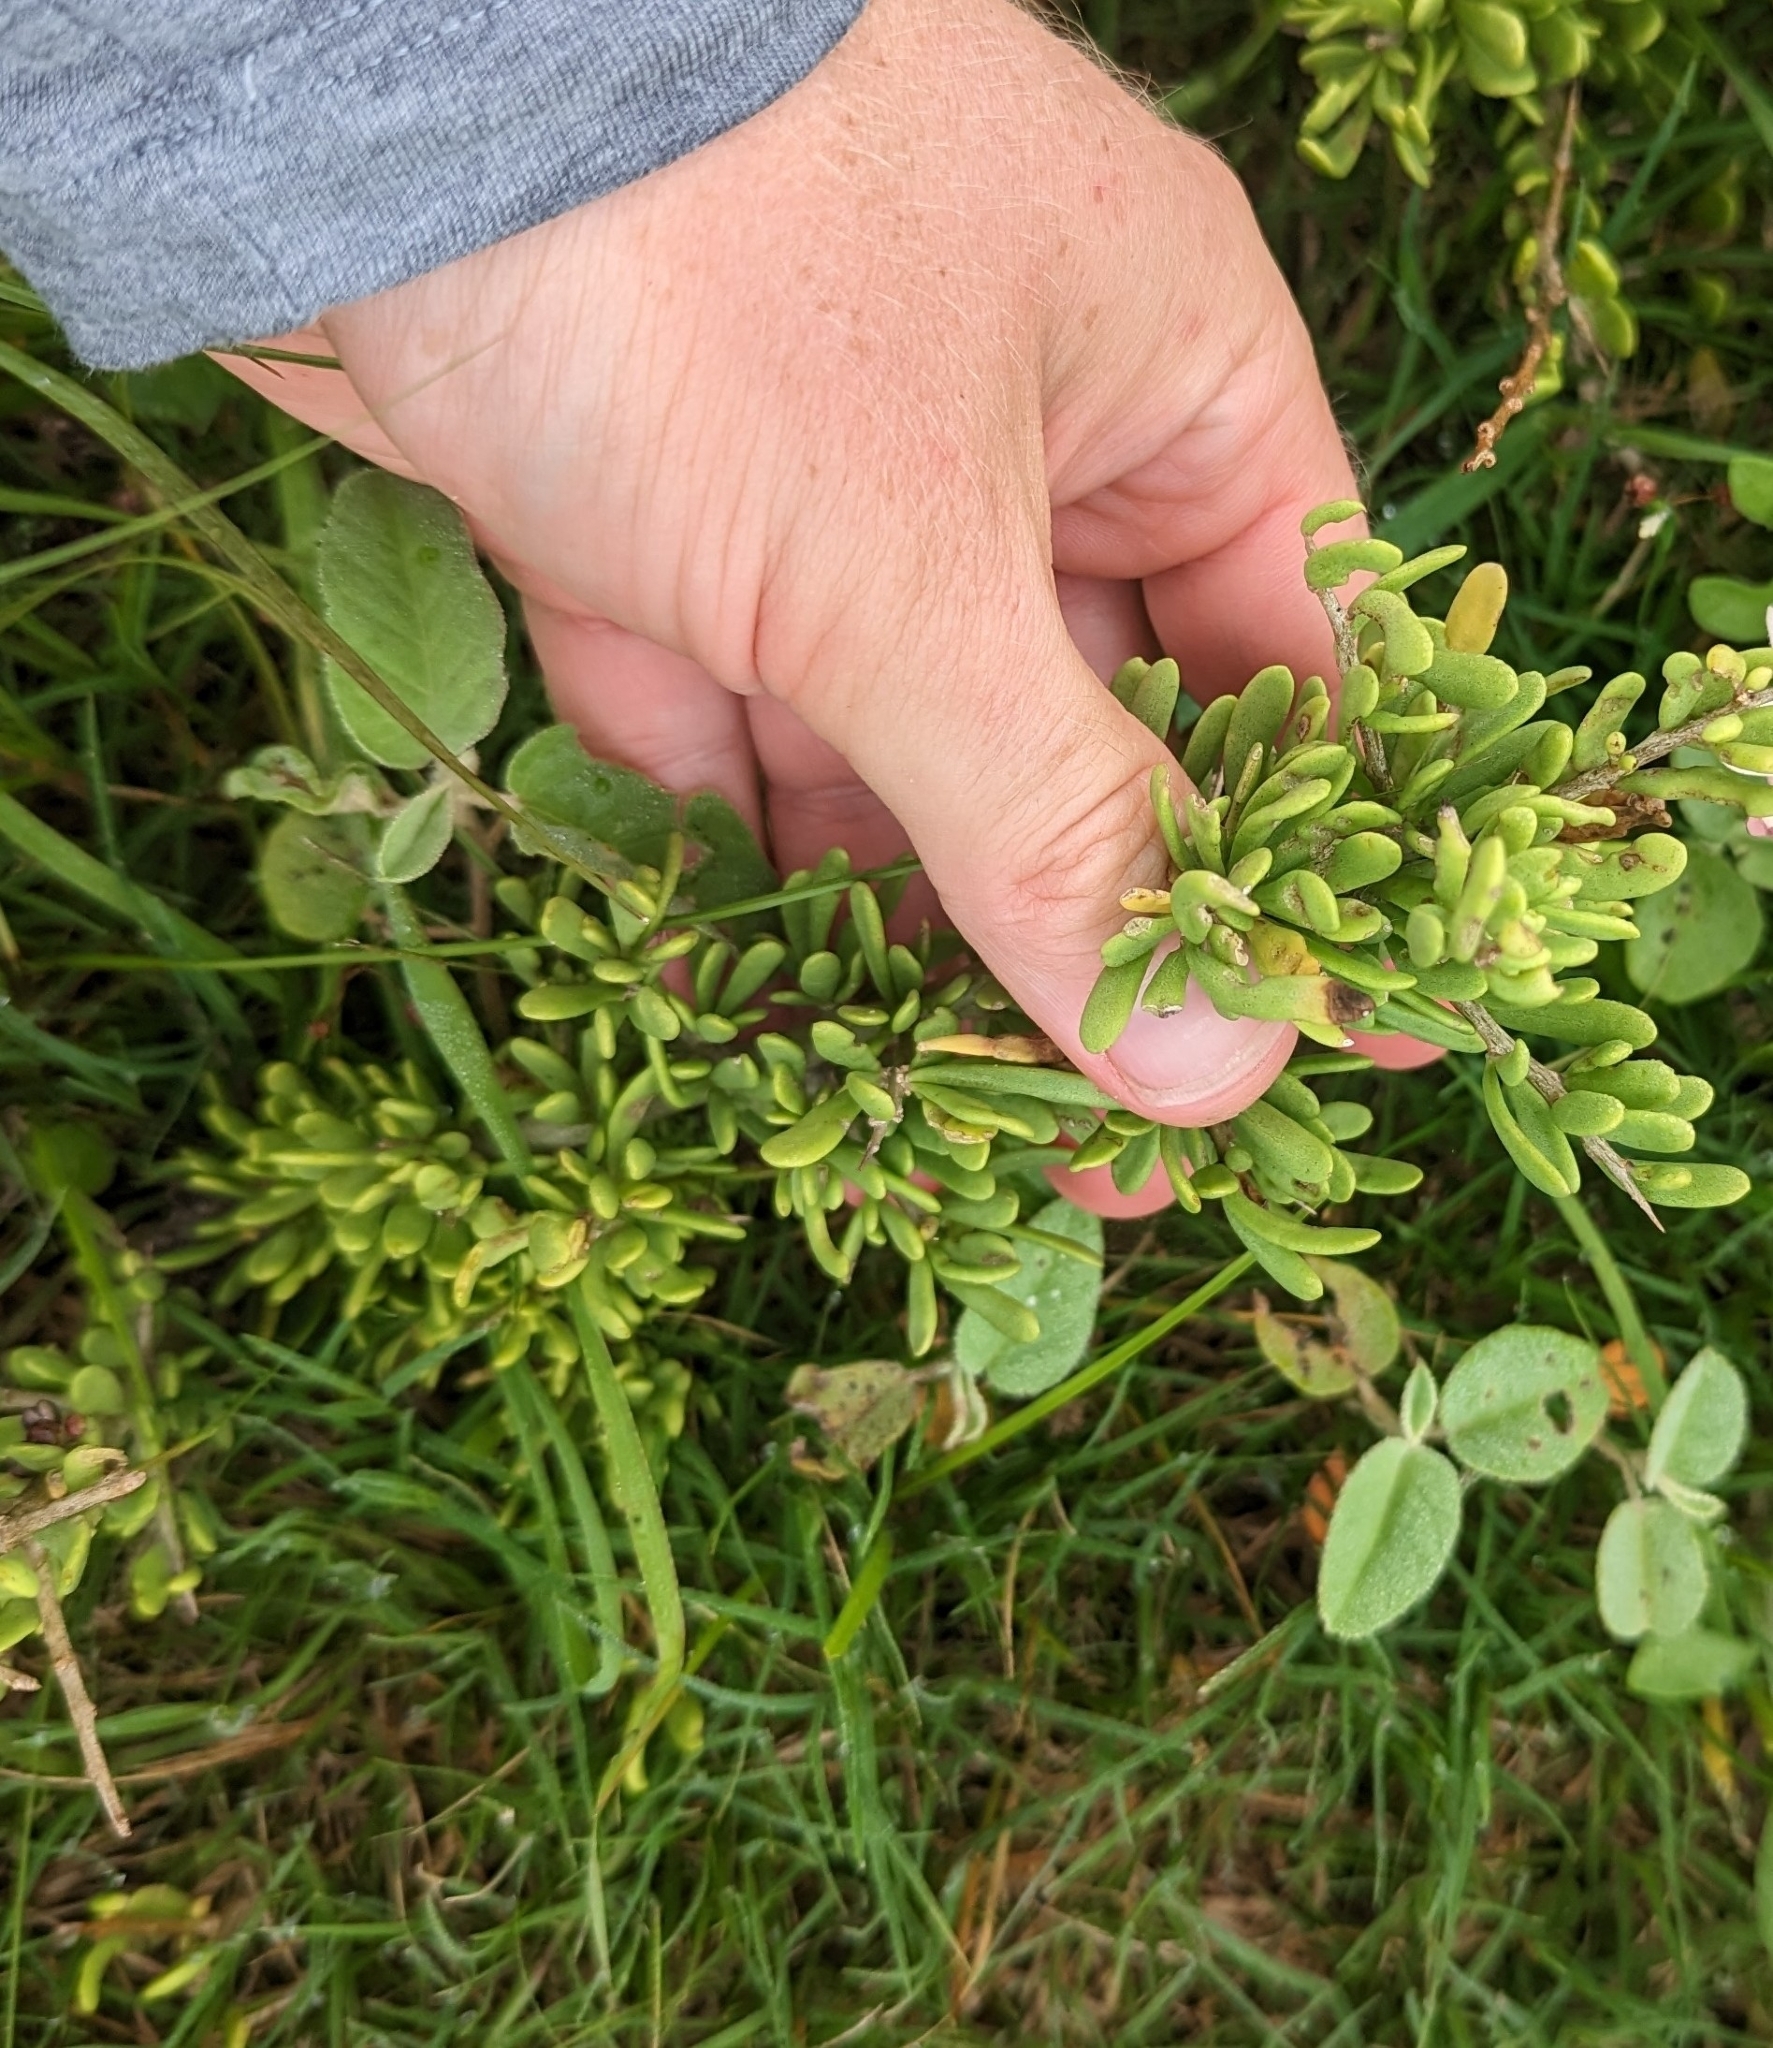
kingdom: Plantae
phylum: Tracheophyta
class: Magnoliopsida
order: Solanales
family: Solanaceae
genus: Lycium
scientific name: Lycium carolinianum
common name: Christmasberry
